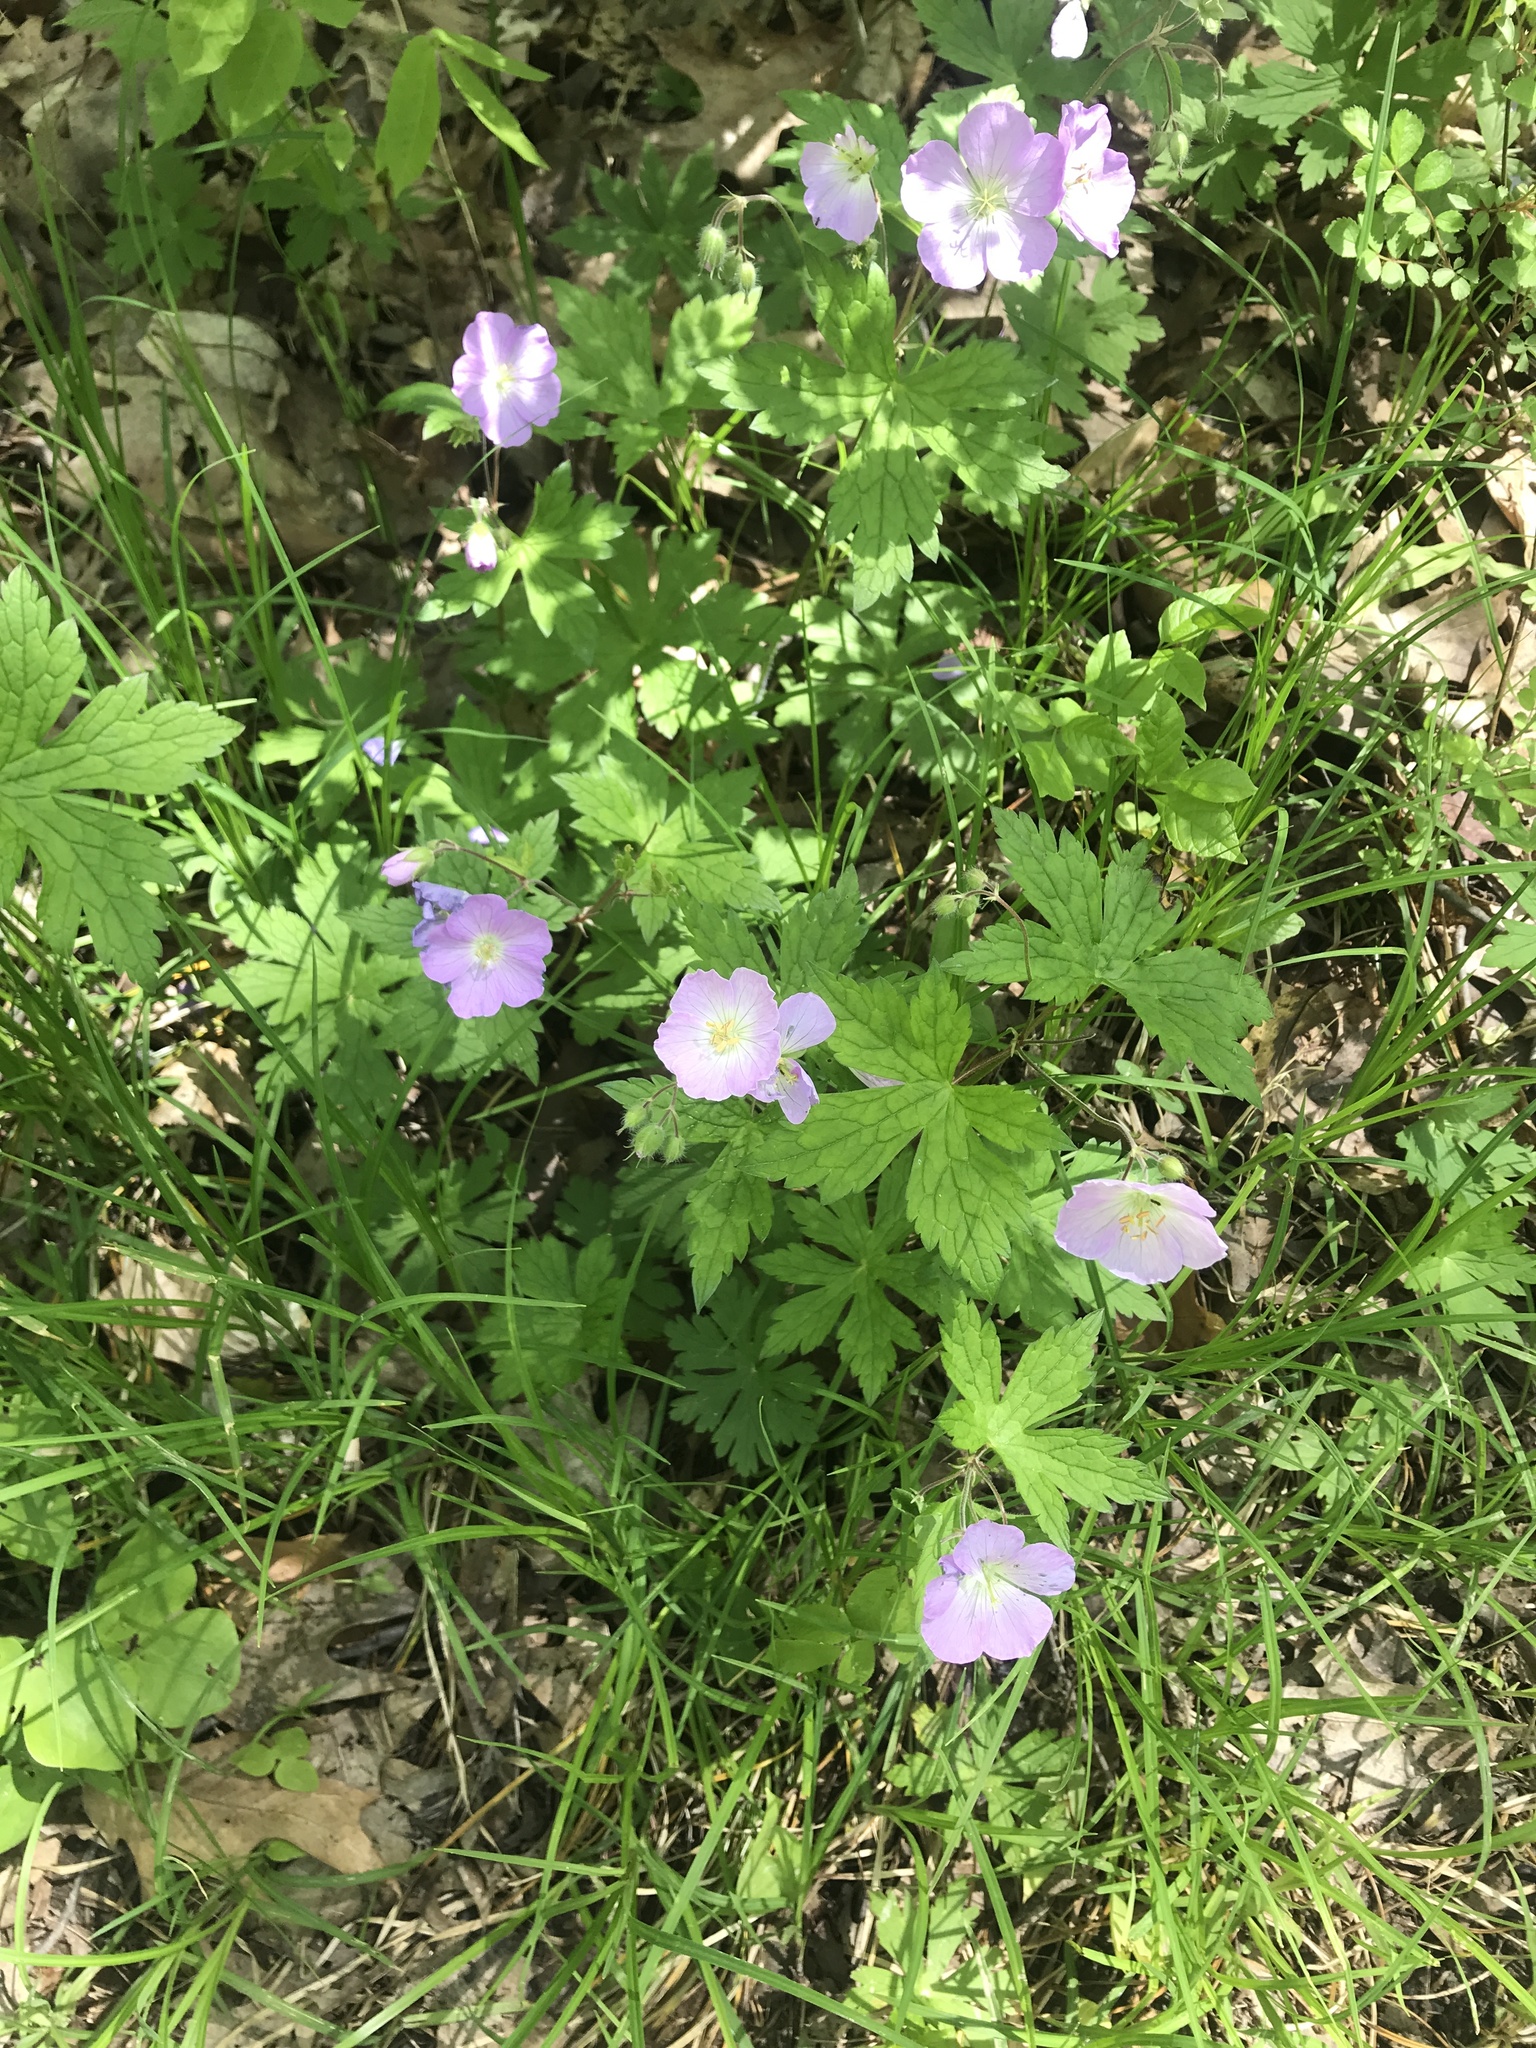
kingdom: Plantae
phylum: Tracheophyta
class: Magnoliopsida
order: Geraniales
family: Geraniaceae
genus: Geranium
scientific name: Geranium maculatum
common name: Spotted geranium
